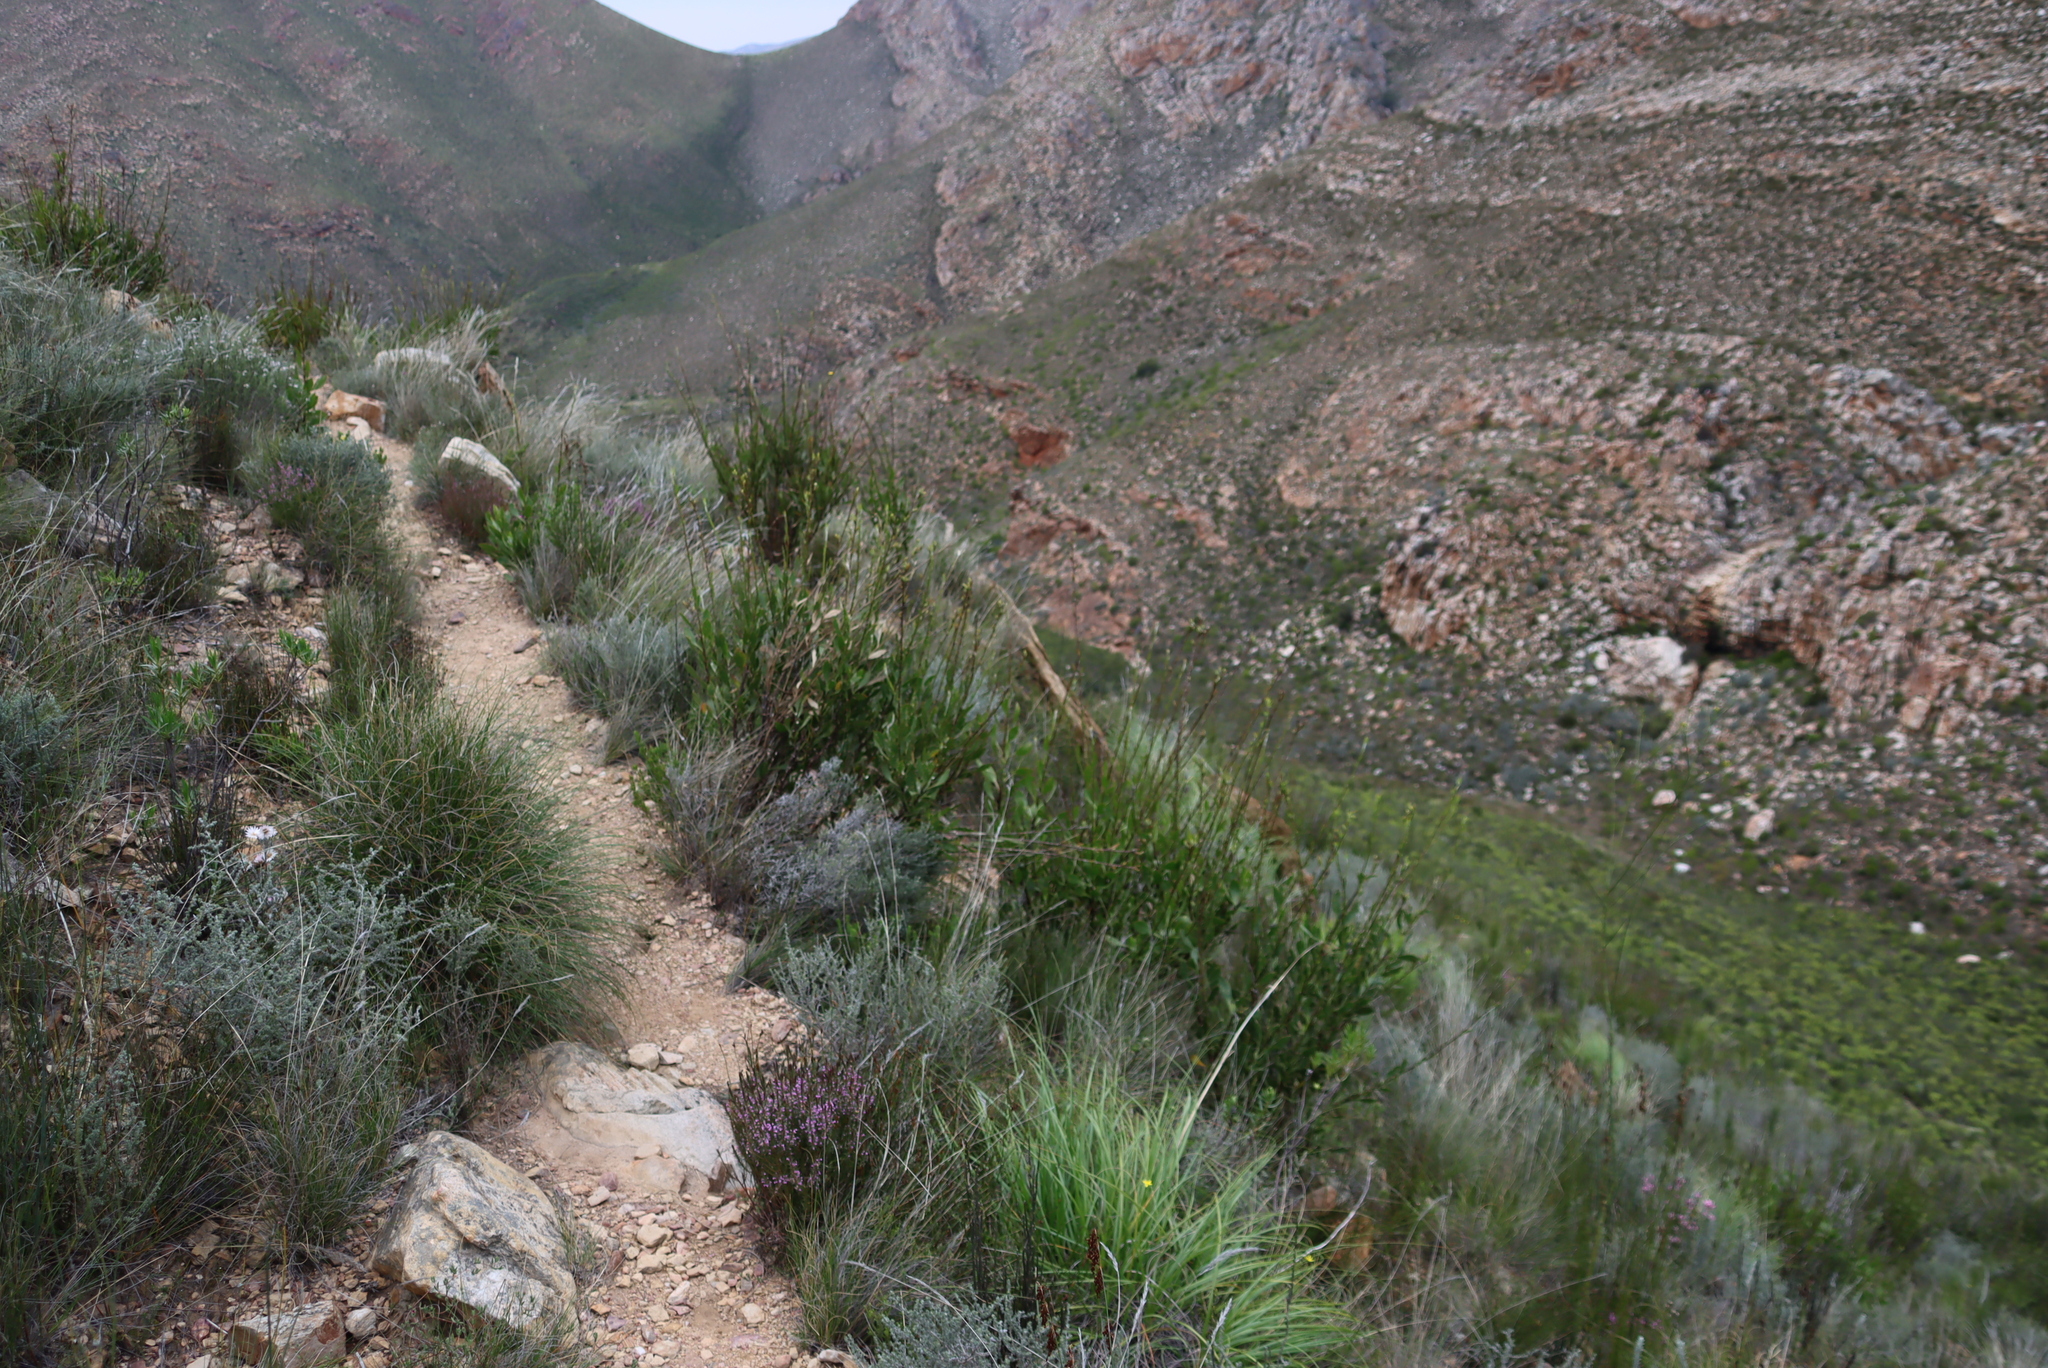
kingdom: Plantae
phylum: Tracheophyta
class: Magnoliopsida
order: Asterales
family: Asteraceae
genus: Osteospermum
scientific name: Osteospermum junceum
